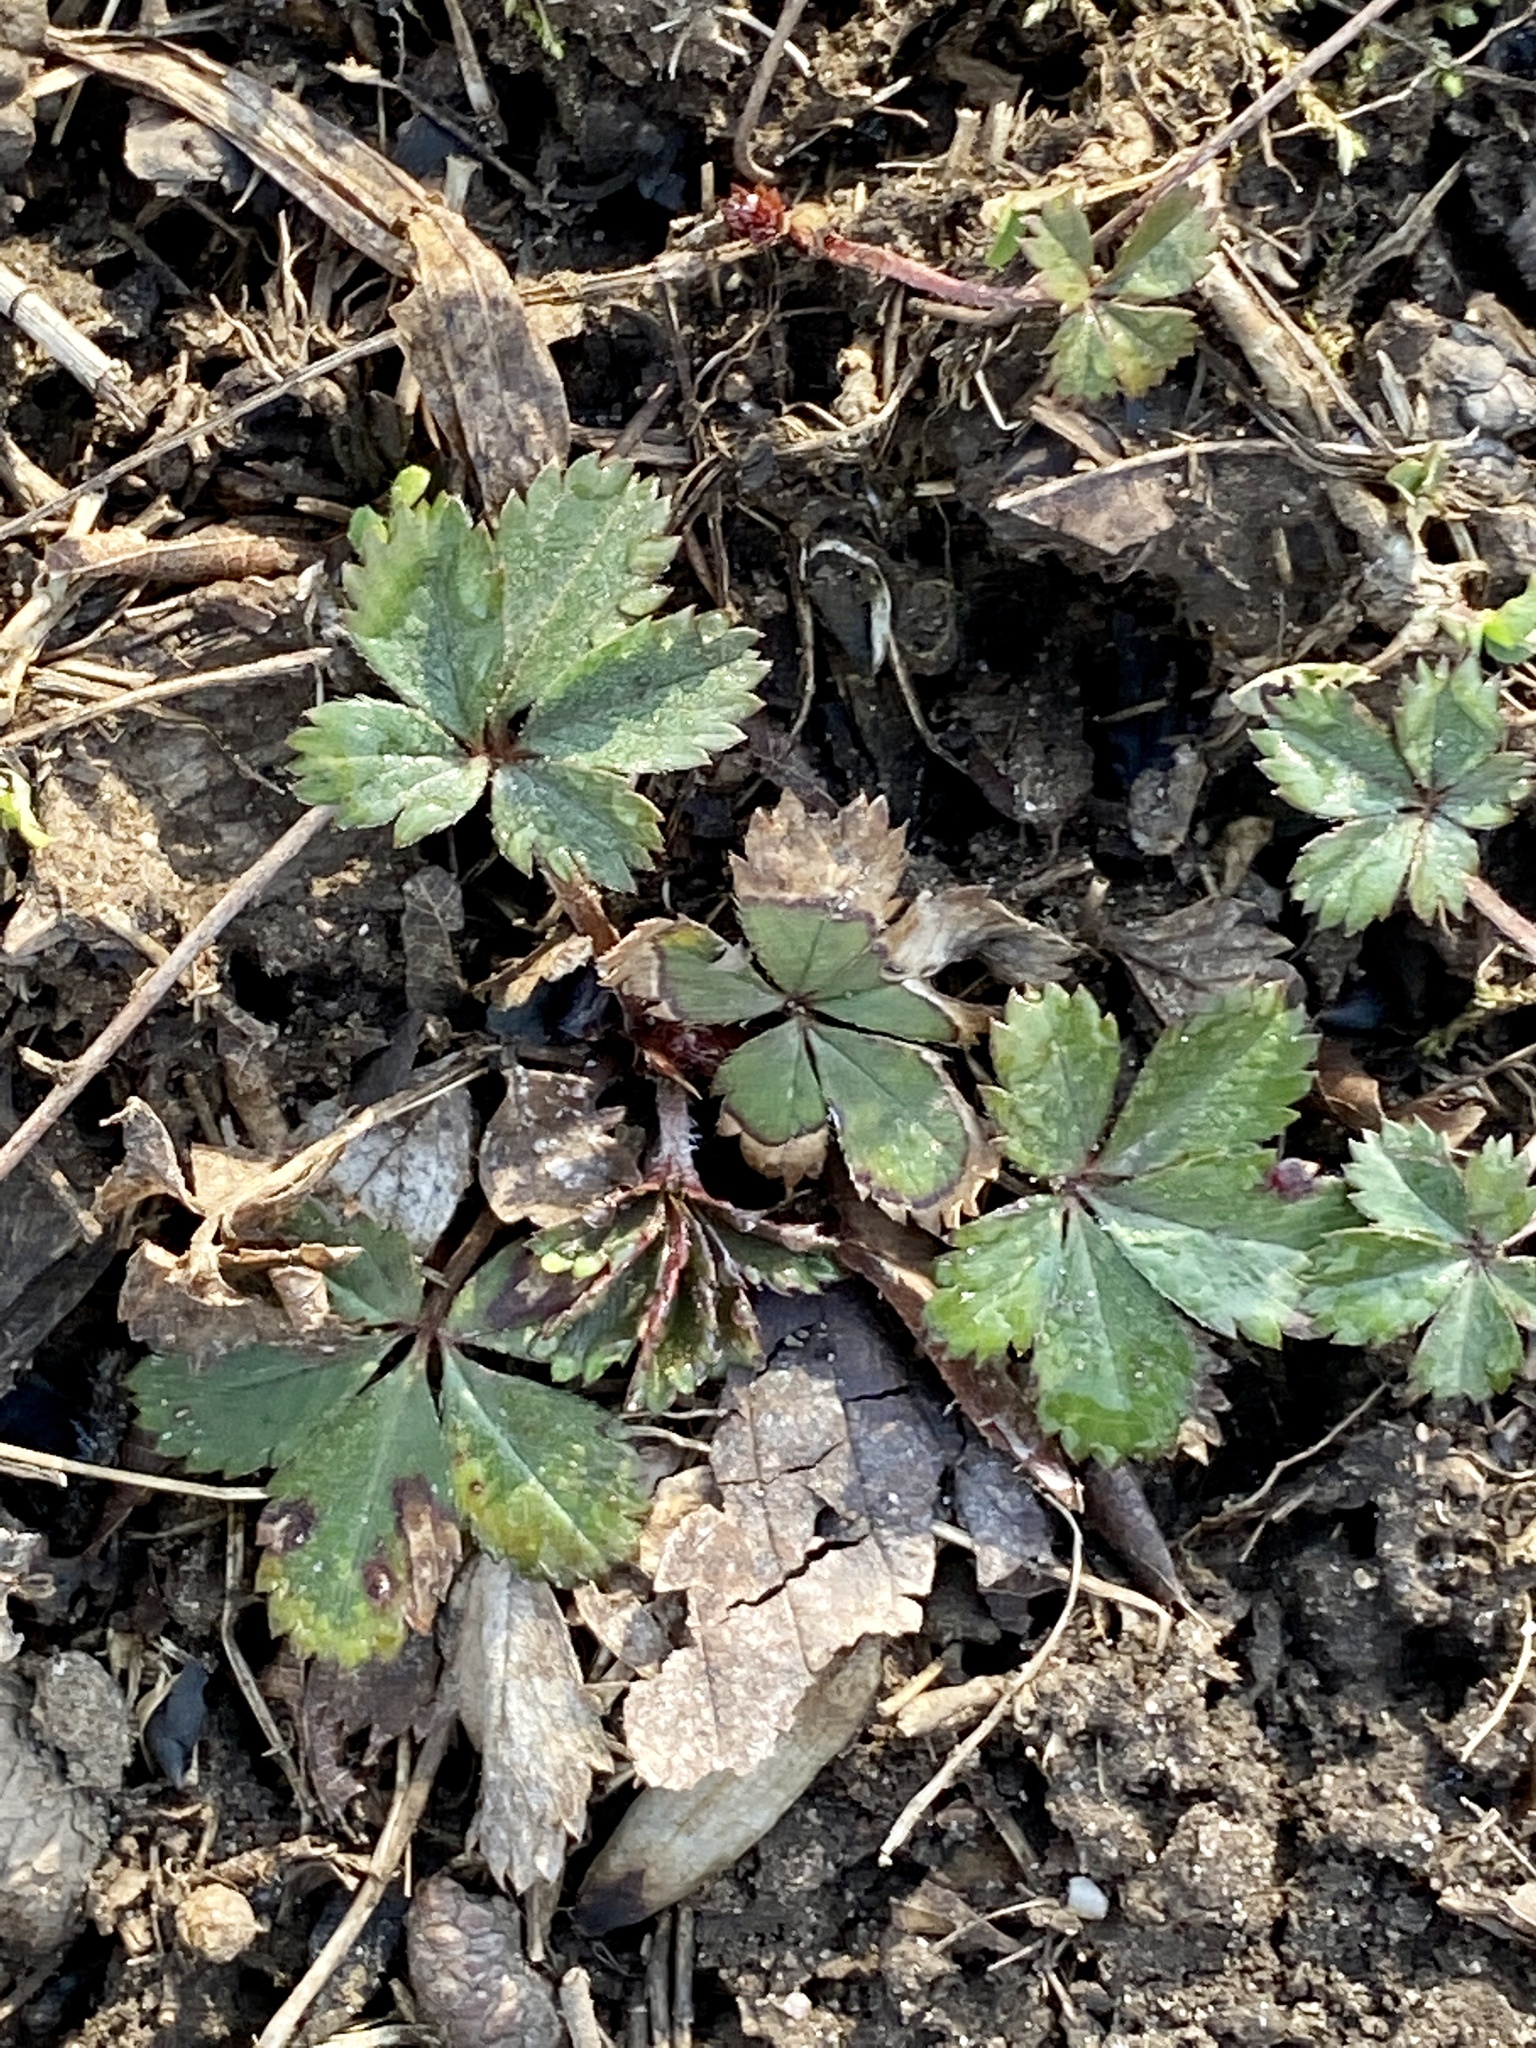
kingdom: Plantae
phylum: Tracheophyta
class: Magnoliopsida
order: Rosales
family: Rosaceae
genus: Potentilla
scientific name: Potentilla canadensis
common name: Canada cinquefoil
